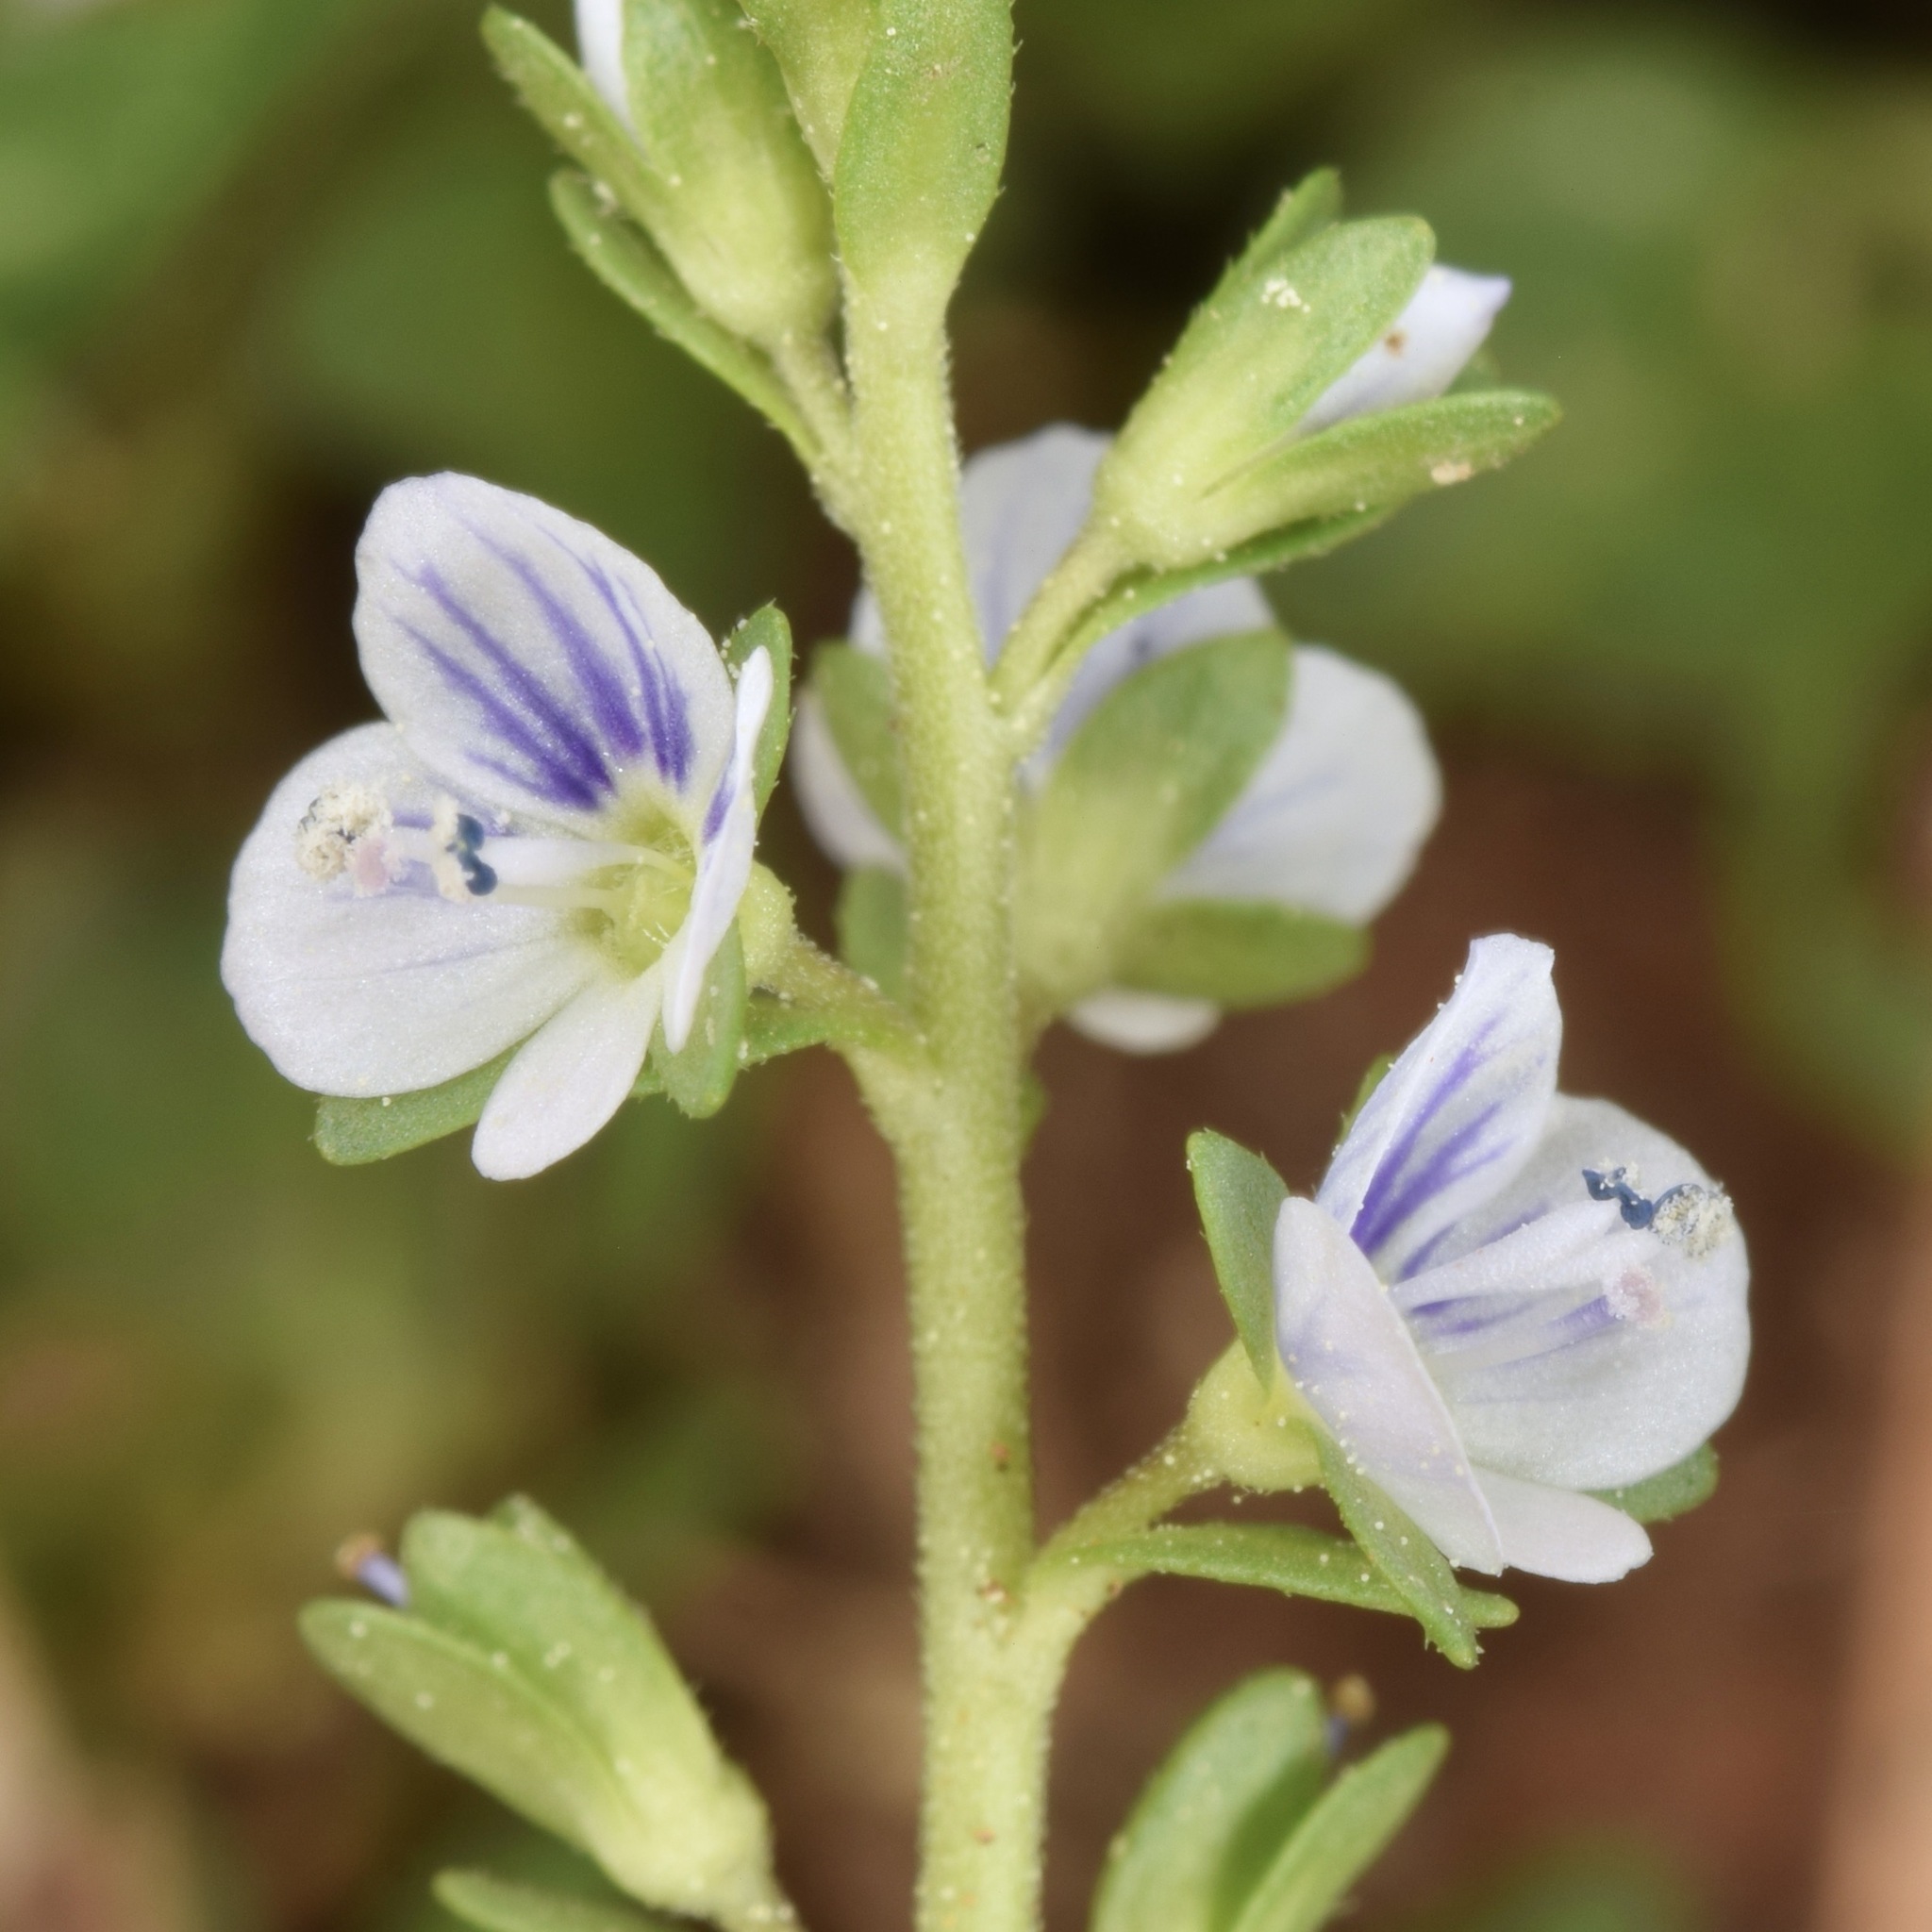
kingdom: Plantae
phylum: Tracheophyta
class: Magnoliopsida
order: Lamiales
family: Plantaginaceae
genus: Veronica
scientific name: Veronica serpyllifolia
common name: Thyme-leaved speedwell
